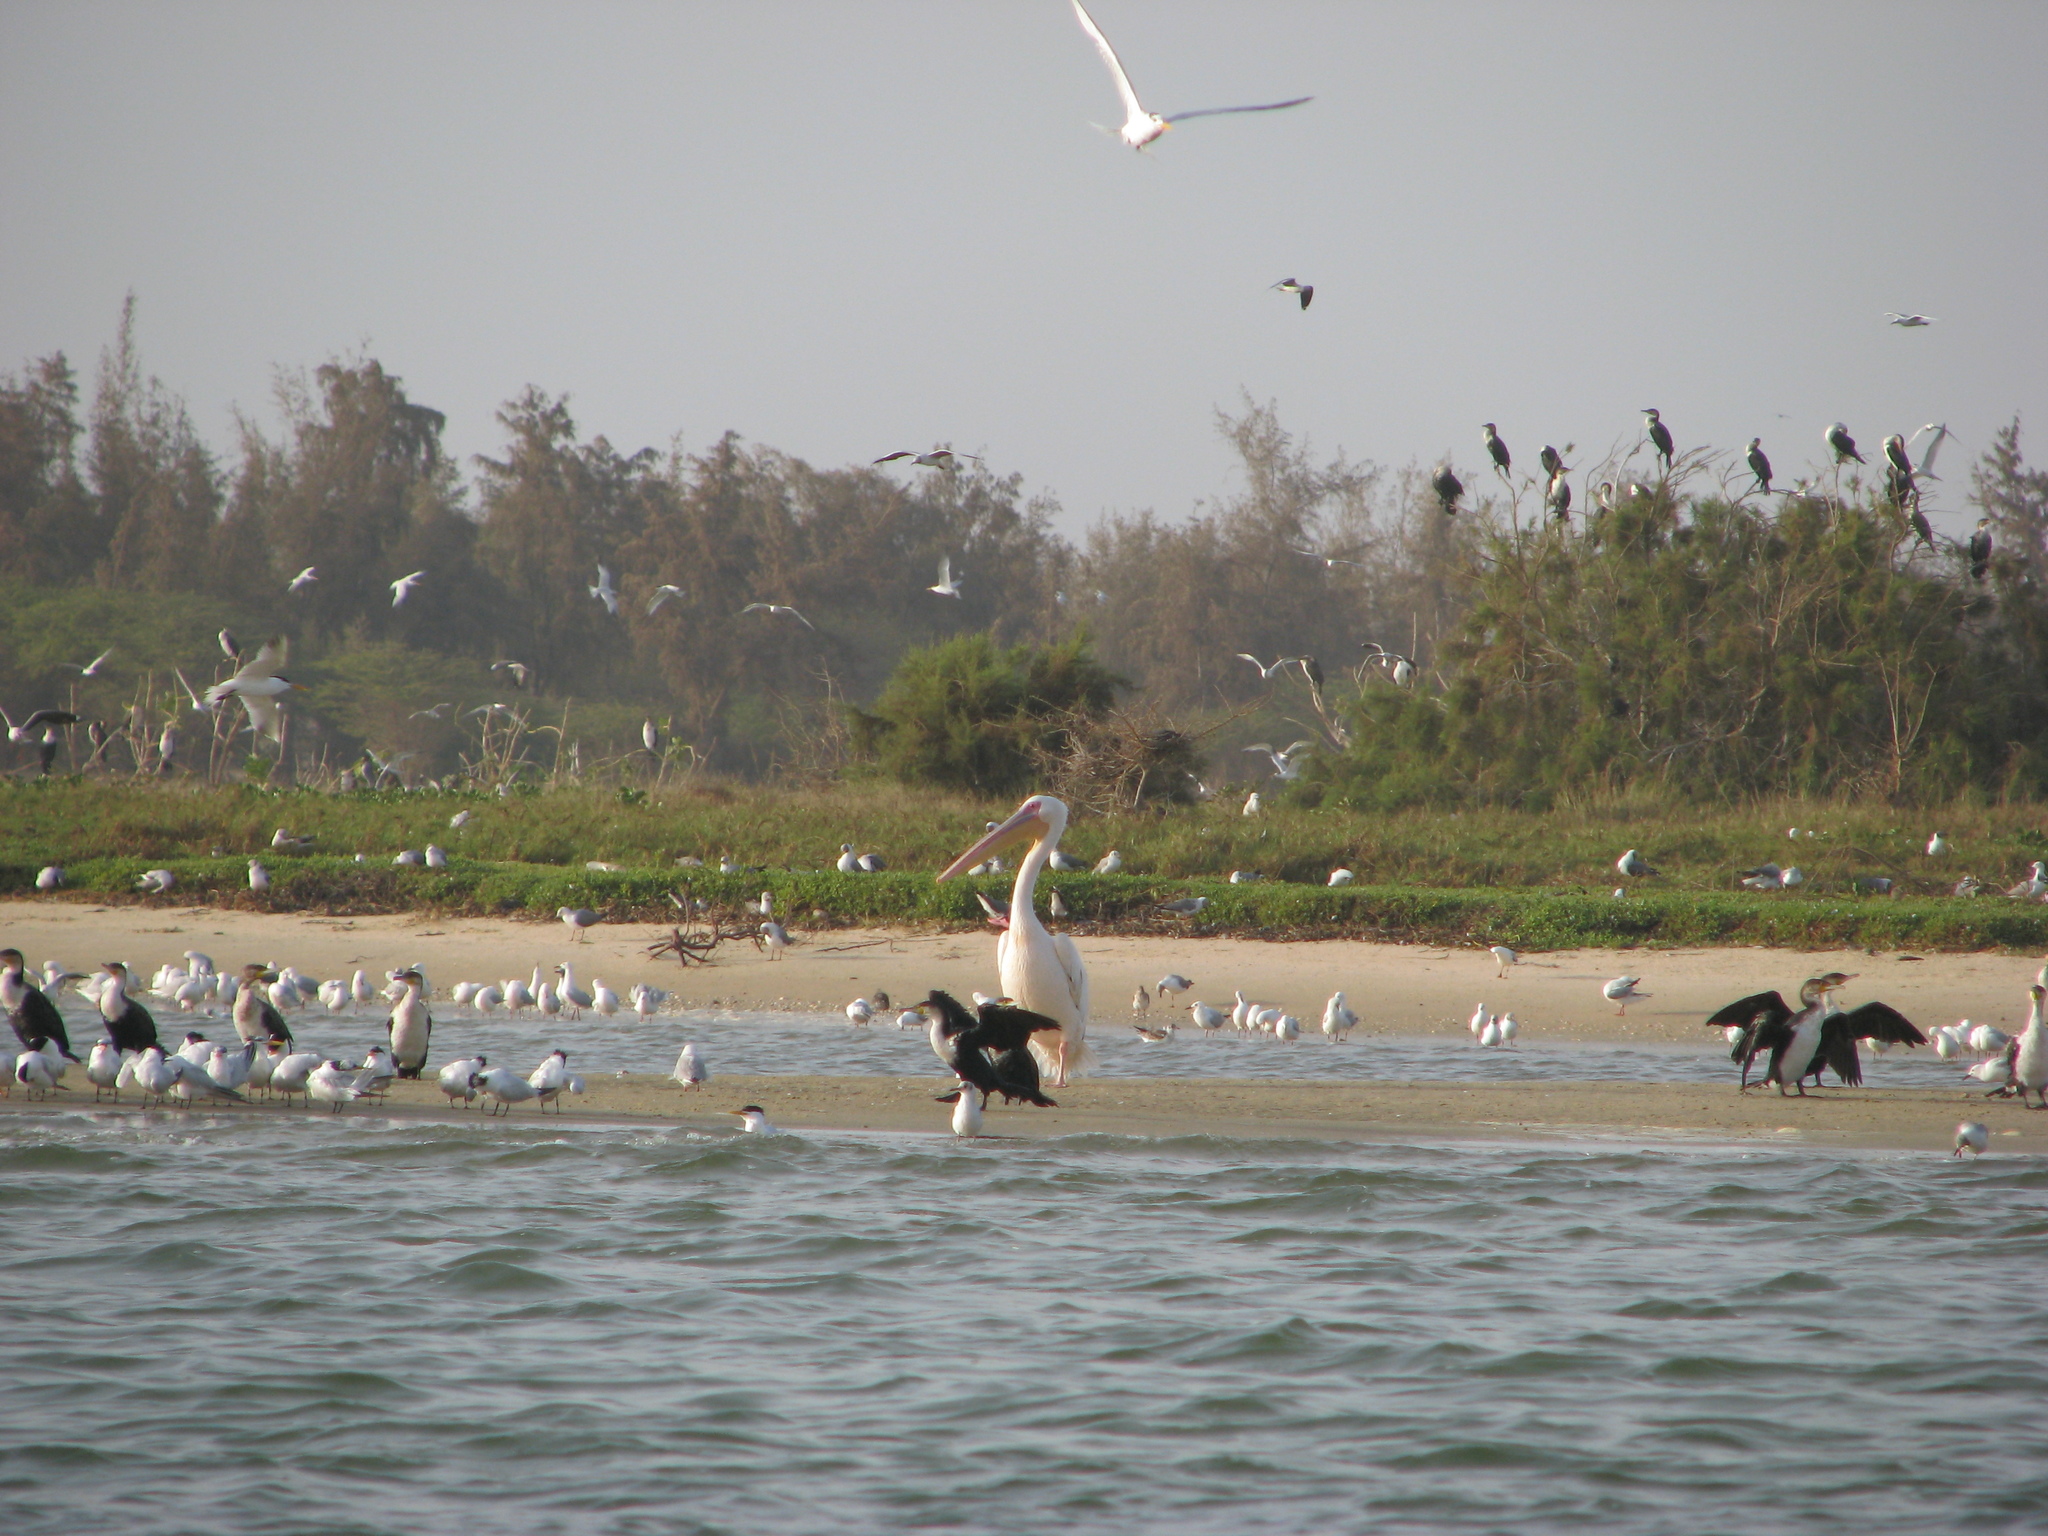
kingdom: Animalia
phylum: Chordata
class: Aves
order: Charadriiformes
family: Laridae
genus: Chroicocephalus
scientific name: Chroicocephalus genei
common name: Slender-billed gull
